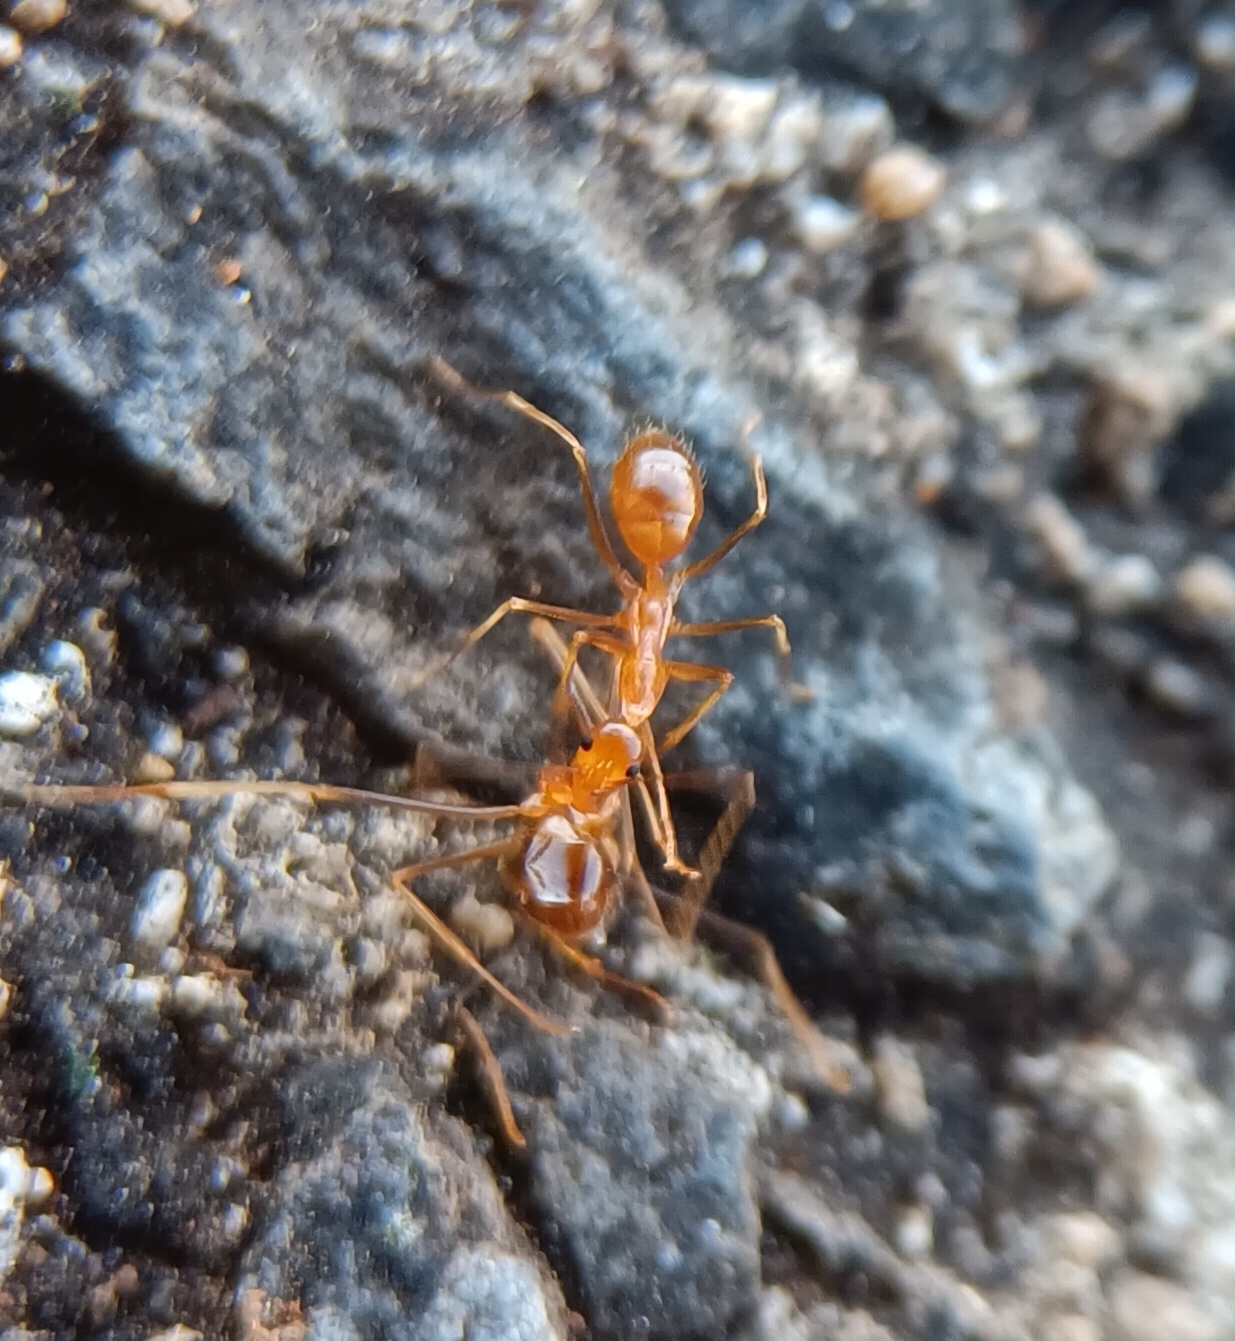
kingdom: Animalia
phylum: Arthropoda
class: Insecta
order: Hymenoptera
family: Formicidae
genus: Anoplolepis
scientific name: Anoplolepis gracilipes
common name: Ant
